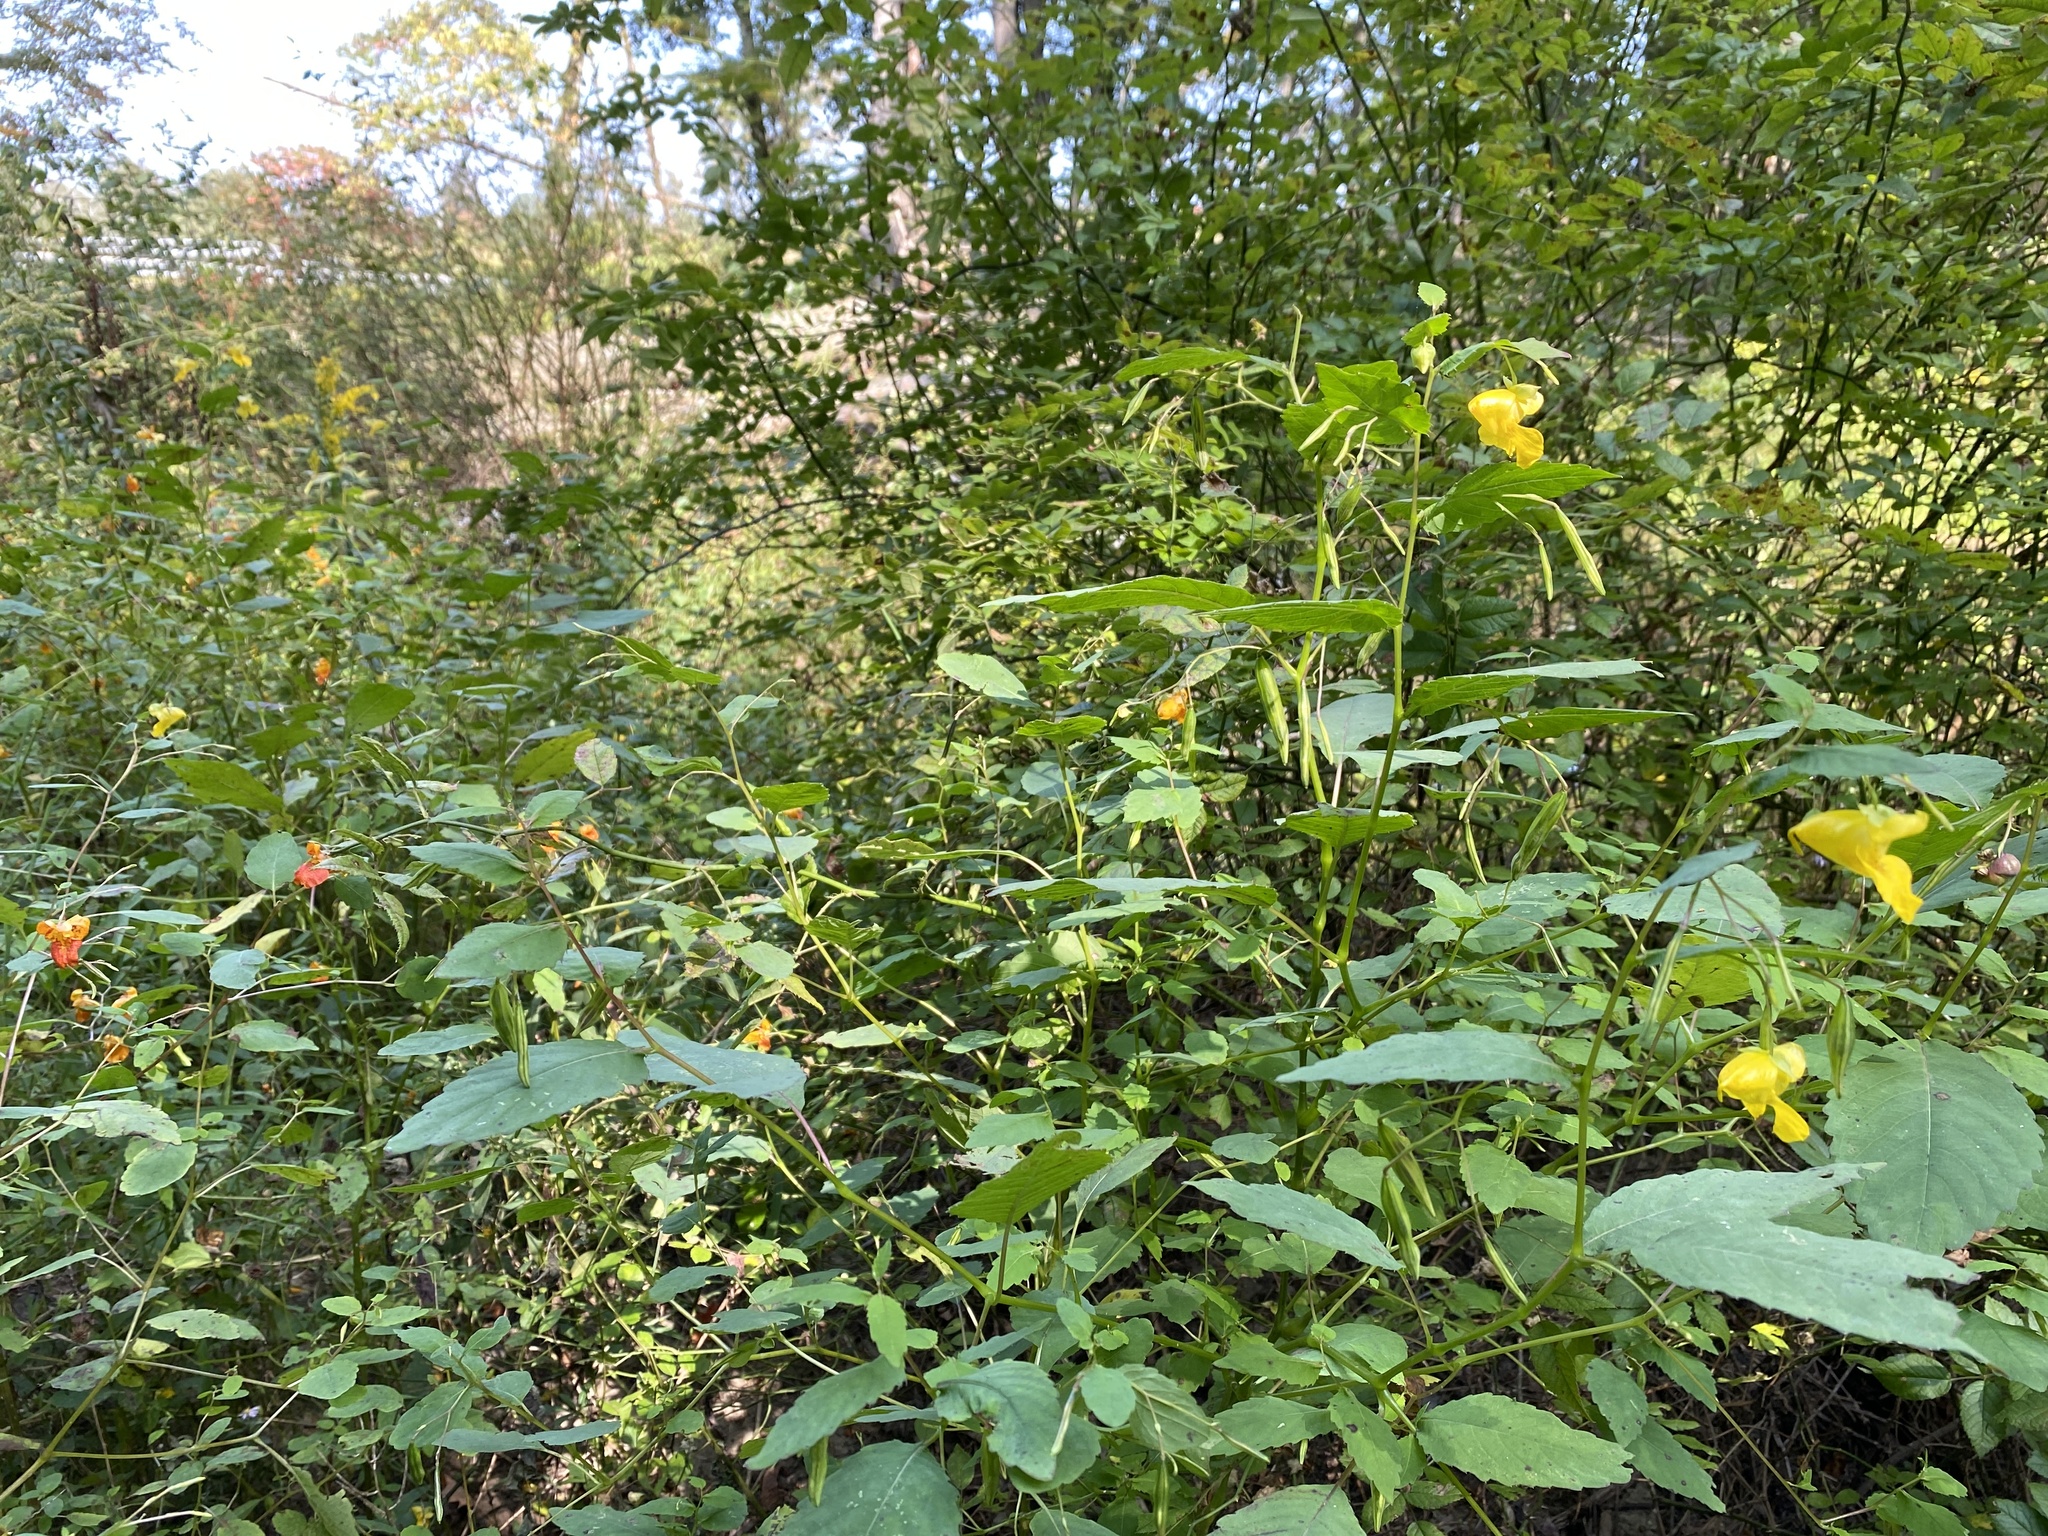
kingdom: Plantae
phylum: Tracheophyta
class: Magnoliopsida
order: Ericales
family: Balsaminaceae
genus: Impatiens
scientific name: Impatiens pallida
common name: Pale snapweed
